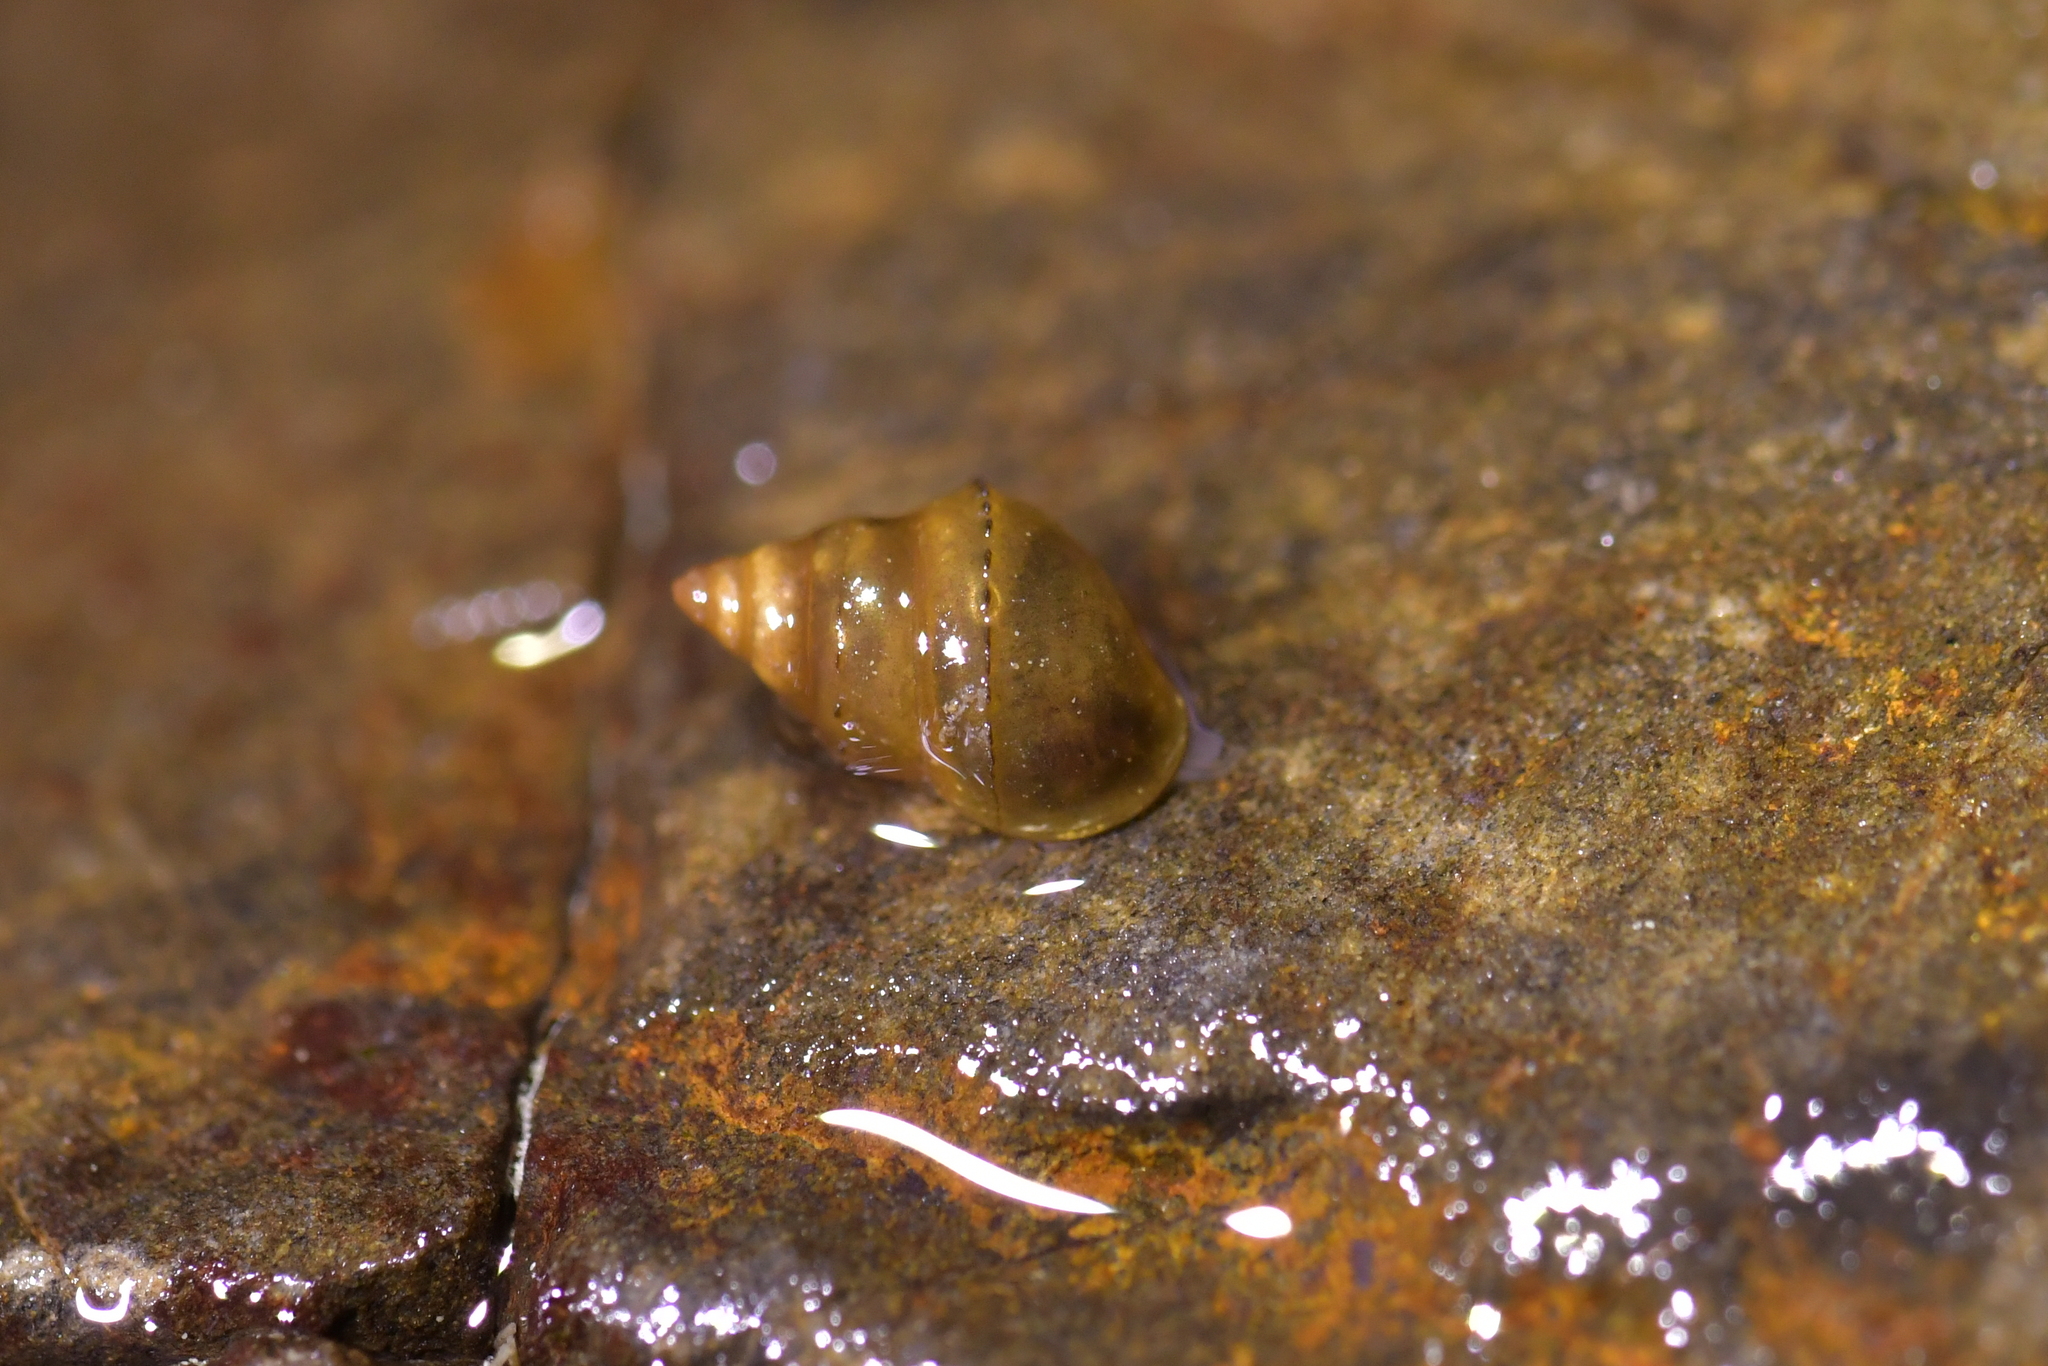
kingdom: Animalia
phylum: Mollusca
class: Gastropoda
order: Littorinimorpha
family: Tateidae
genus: Potamopyrgus
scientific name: Potamopyrgus antipodarum
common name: Jenkins' spire snail
